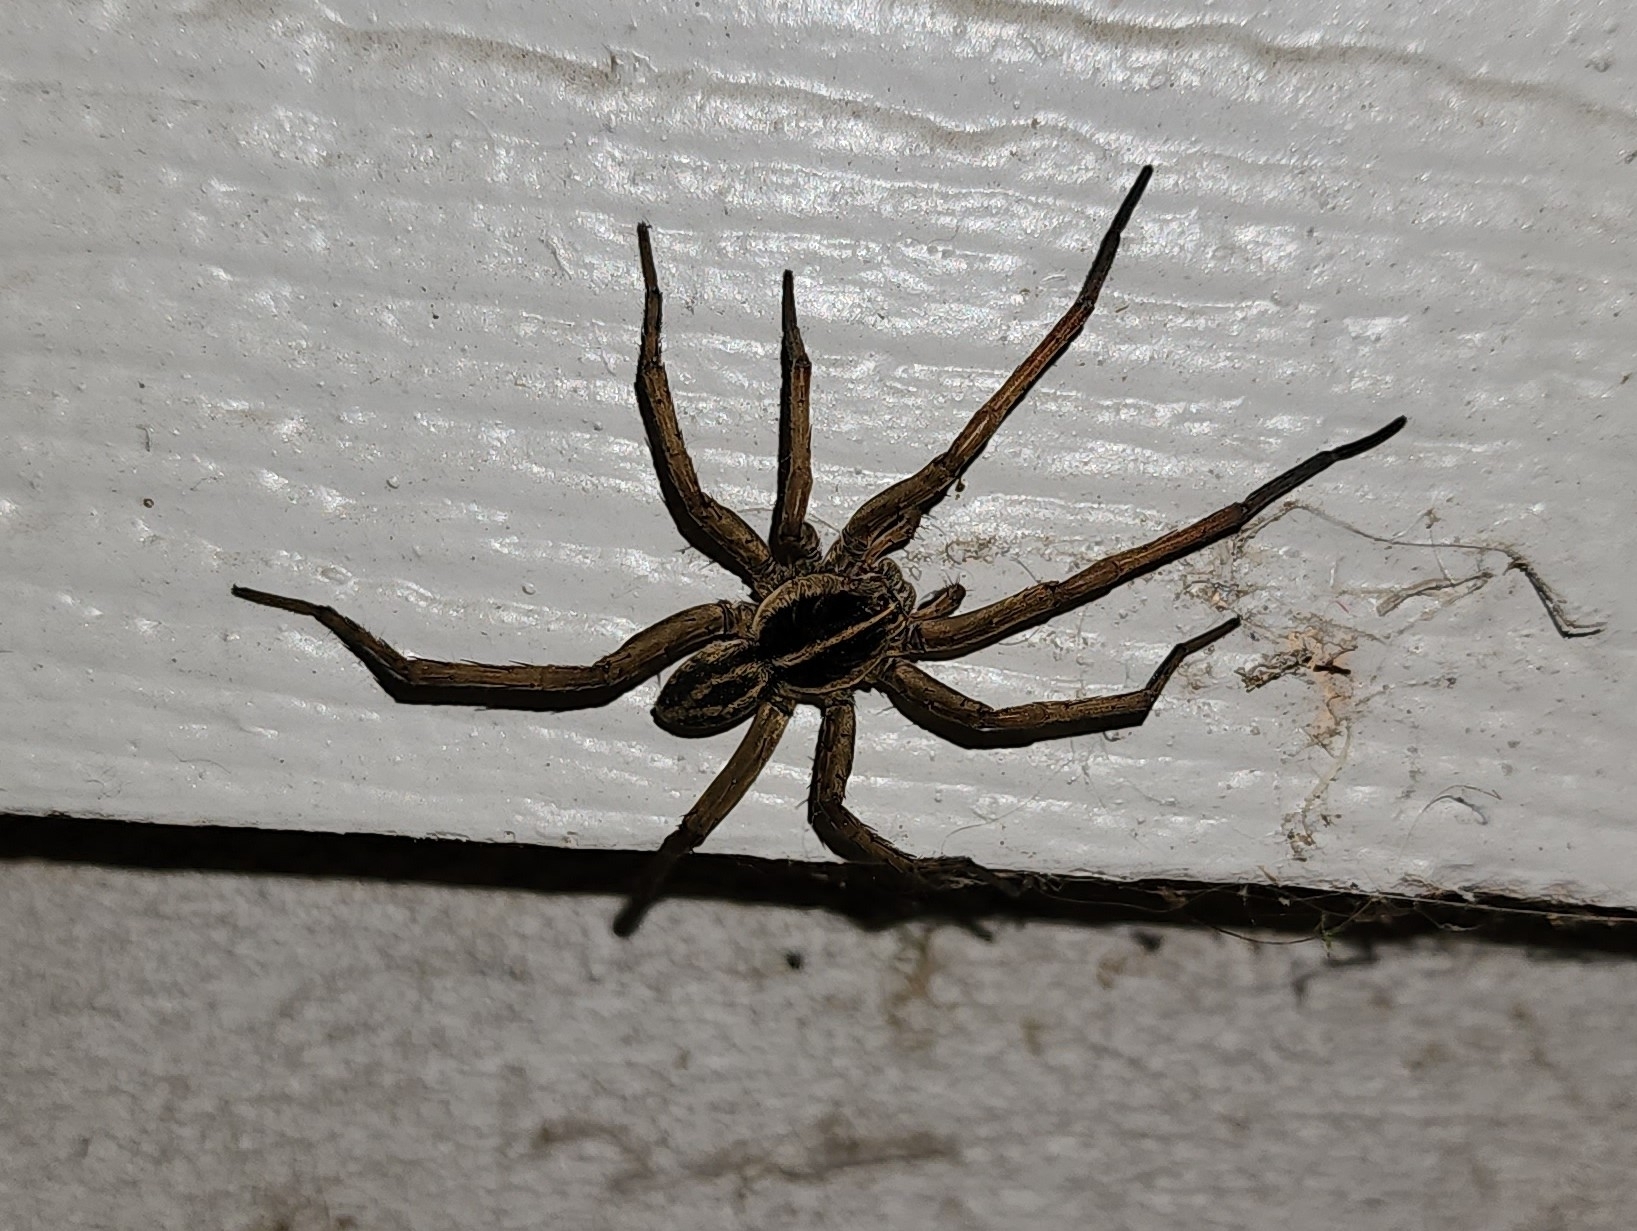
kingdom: Animalia
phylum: Arthropoda
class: Arachnida
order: Araneae
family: Lycosidae
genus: Tigrosa
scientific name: Tigrosa helluo
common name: Wetland giant wolf spider
